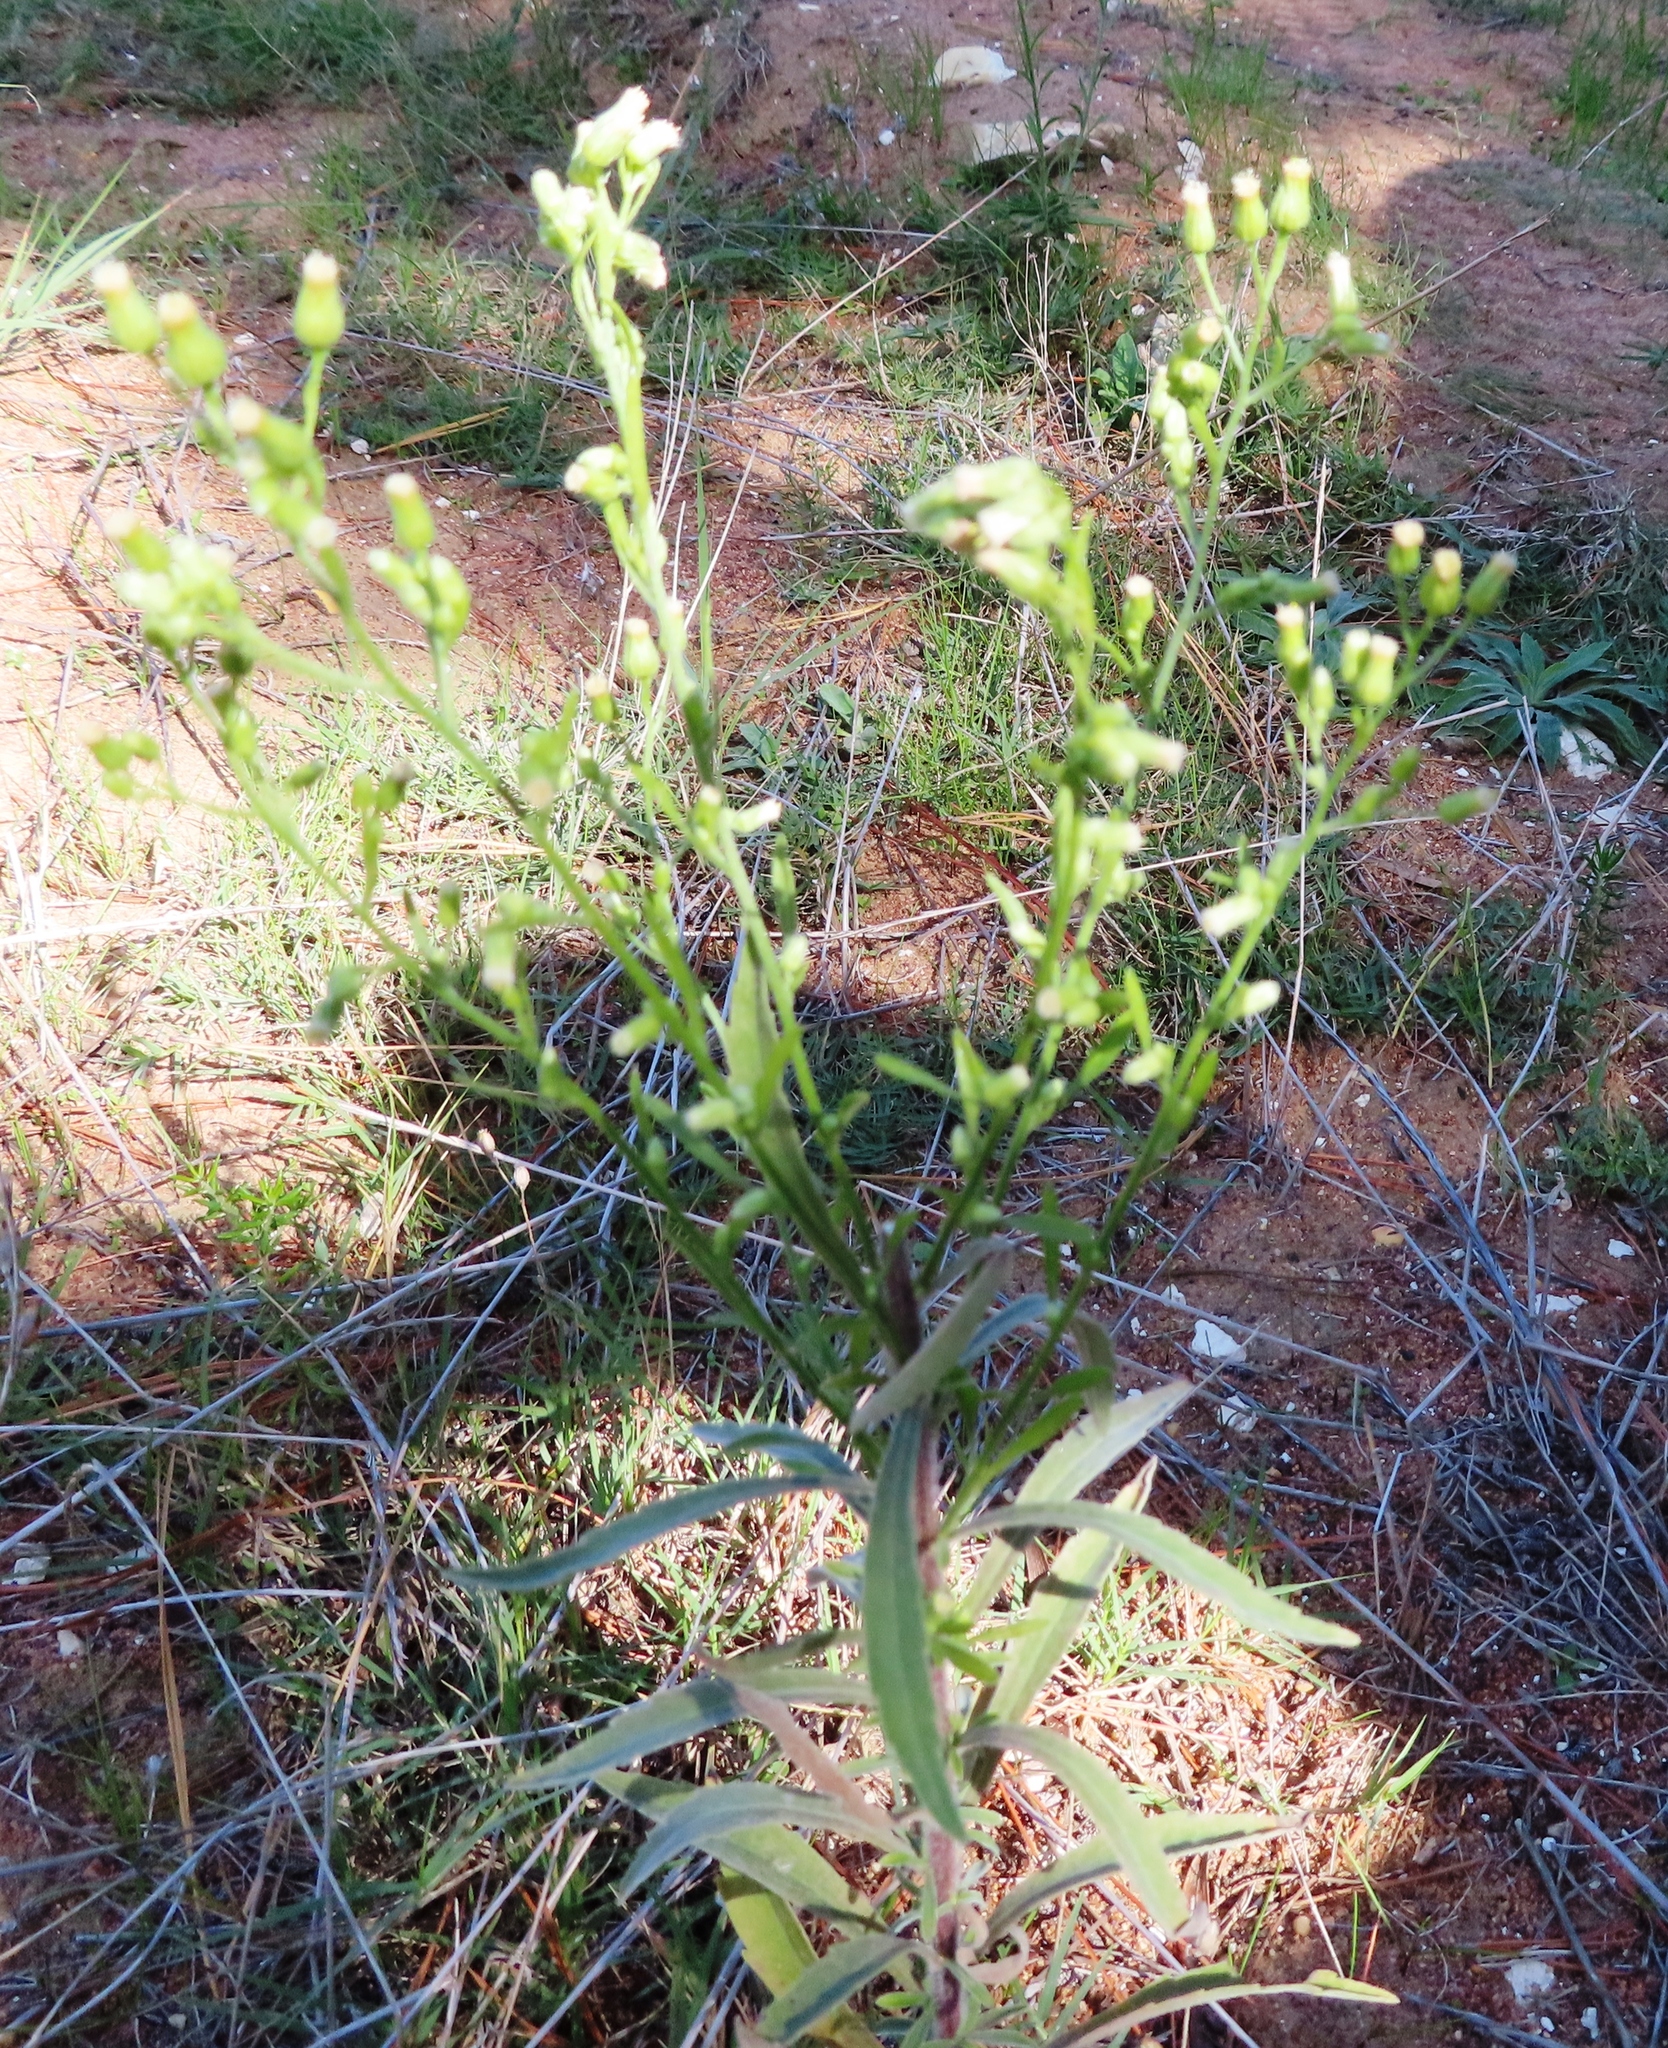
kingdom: Plantae
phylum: Tracheophyta
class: Magnoliopsida
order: Asterales
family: Asteraceae
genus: Erigeron
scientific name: Erigeron sumatrensis
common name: Daisy
